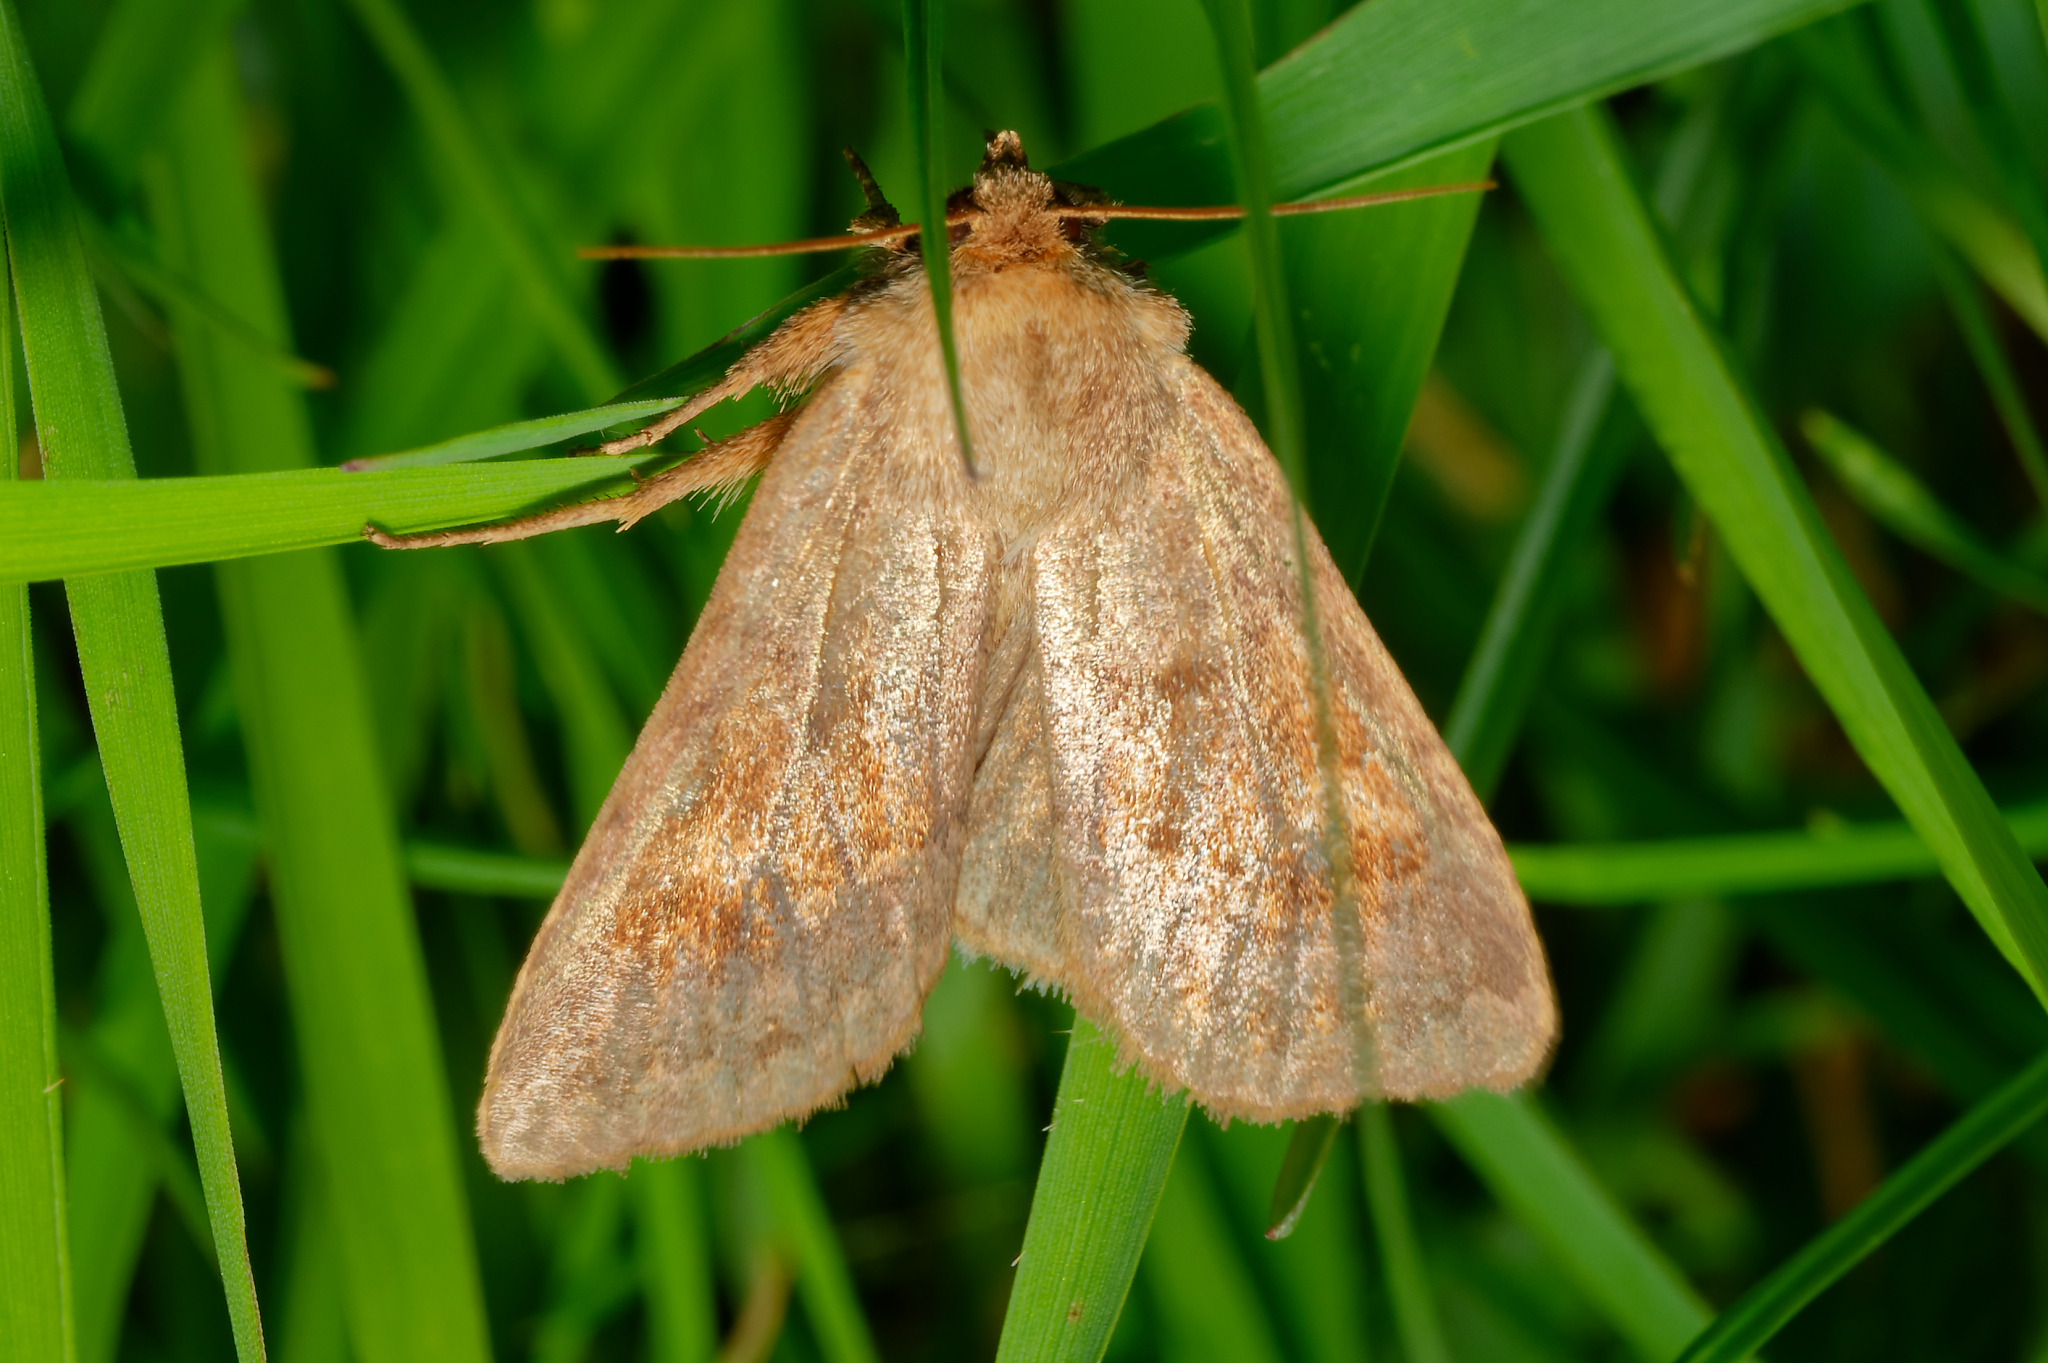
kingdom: Animalia
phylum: Arthropoda
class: Insecta
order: Lepidoptera
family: Noctuidae
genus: Nephelodes
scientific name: Nephelodes minians
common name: Bronzed cutworm
